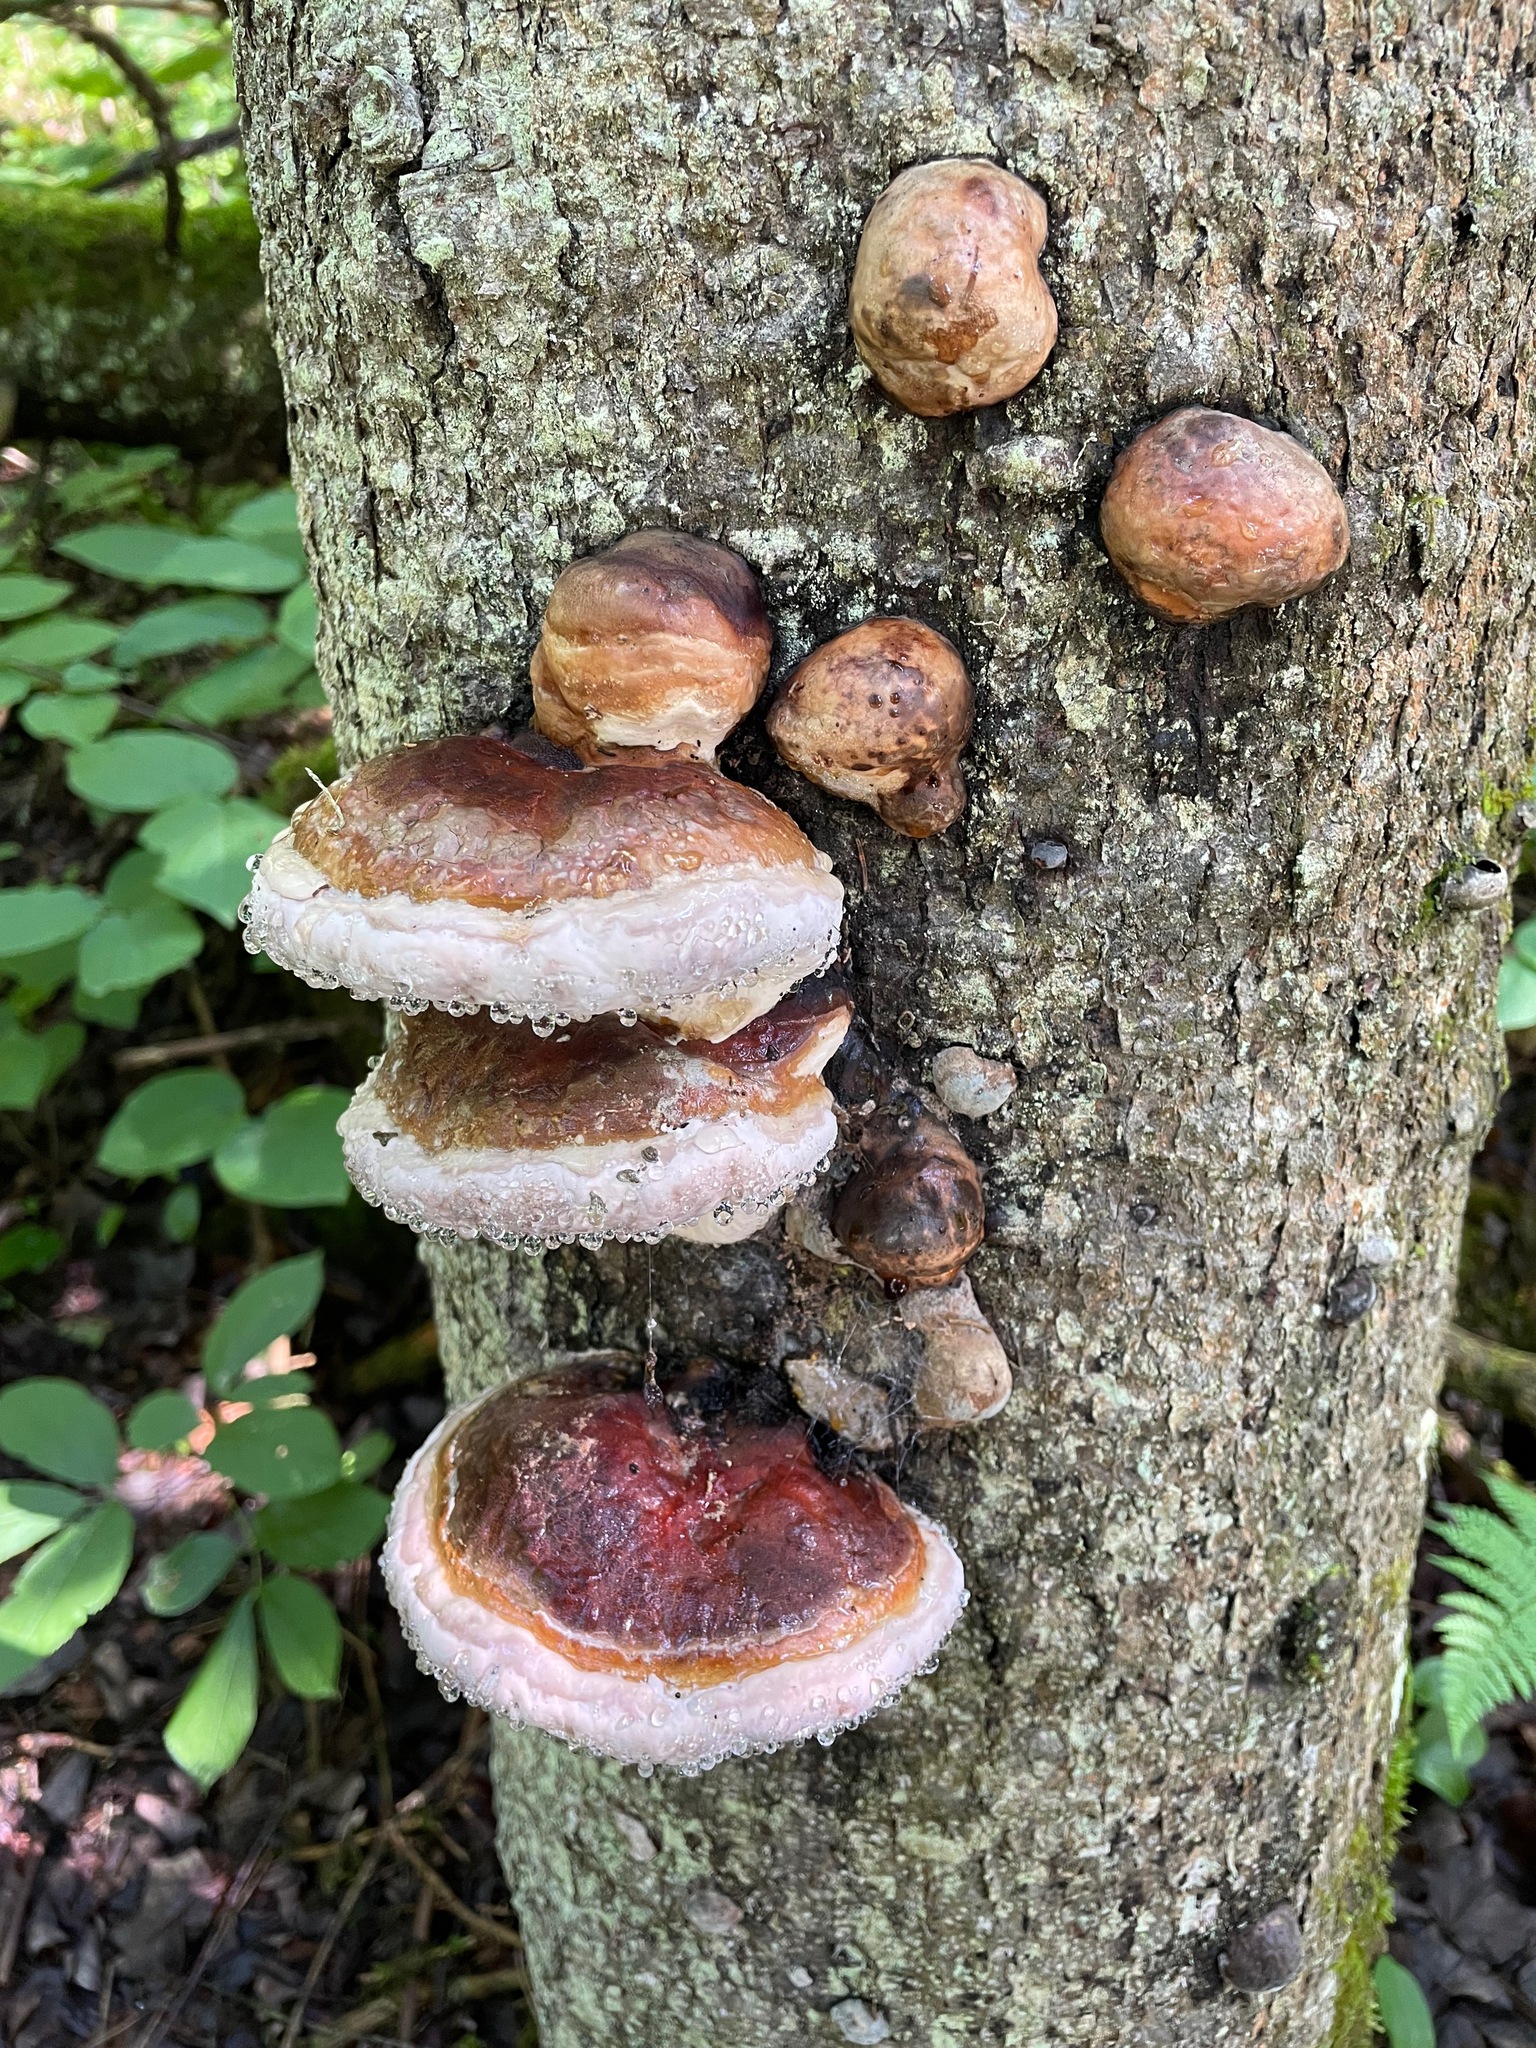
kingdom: Fungi
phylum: Basidiomycota
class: Agaricomycetes
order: Polyporales
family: Fomitopsidaceae
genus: Fomitopsis
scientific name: Fomitopsis mounceae
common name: Northern red belt
